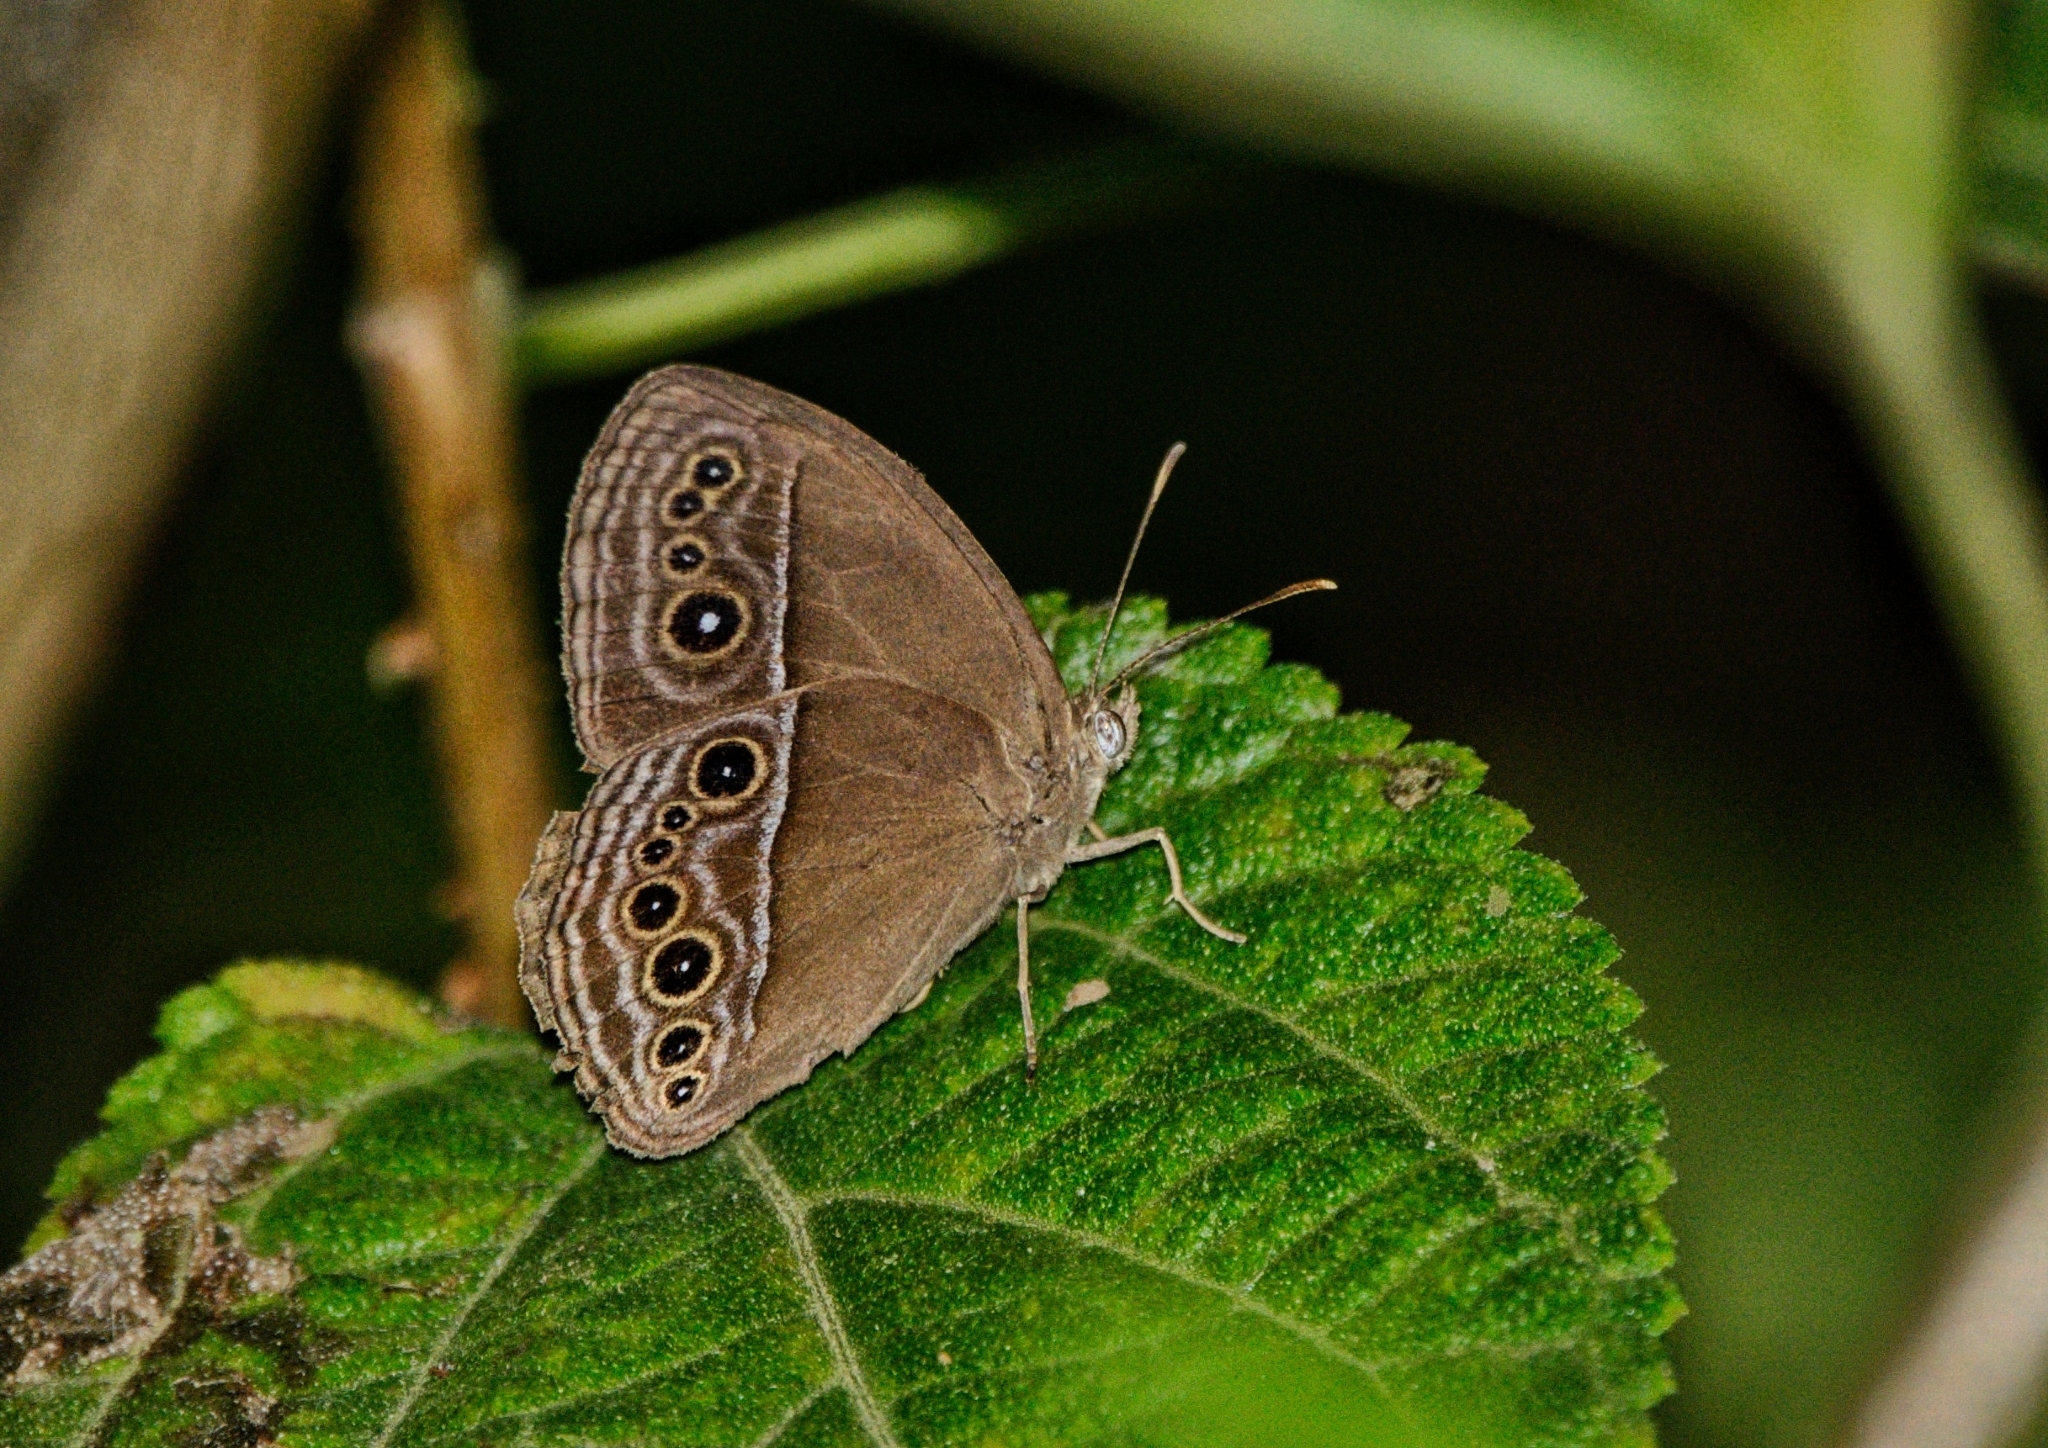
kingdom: Animalia
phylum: Arthropoda
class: Insecta
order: Lepidoptera
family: Nymphalidae
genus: Mycalesis
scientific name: Mycalesis perseus
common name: Dingy bushbrown
